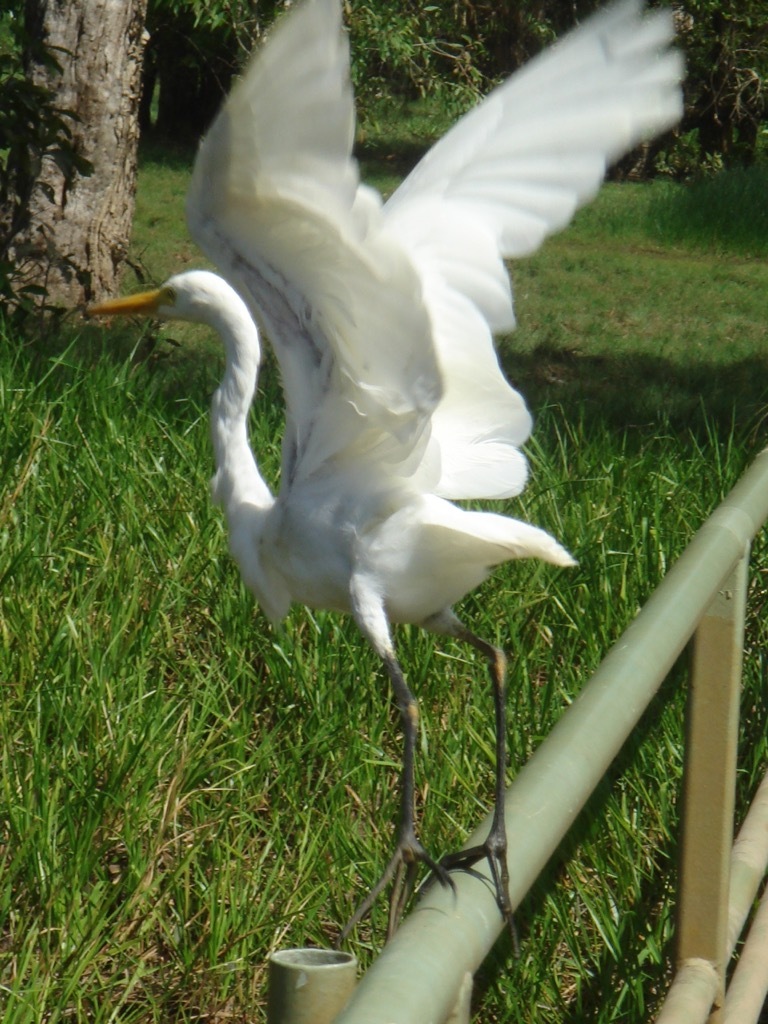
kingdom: Animalia
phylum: Chordata
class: Aves
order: Pelecaniformes
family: Ardeidae
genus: Ardea
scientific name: Ardea modesta
